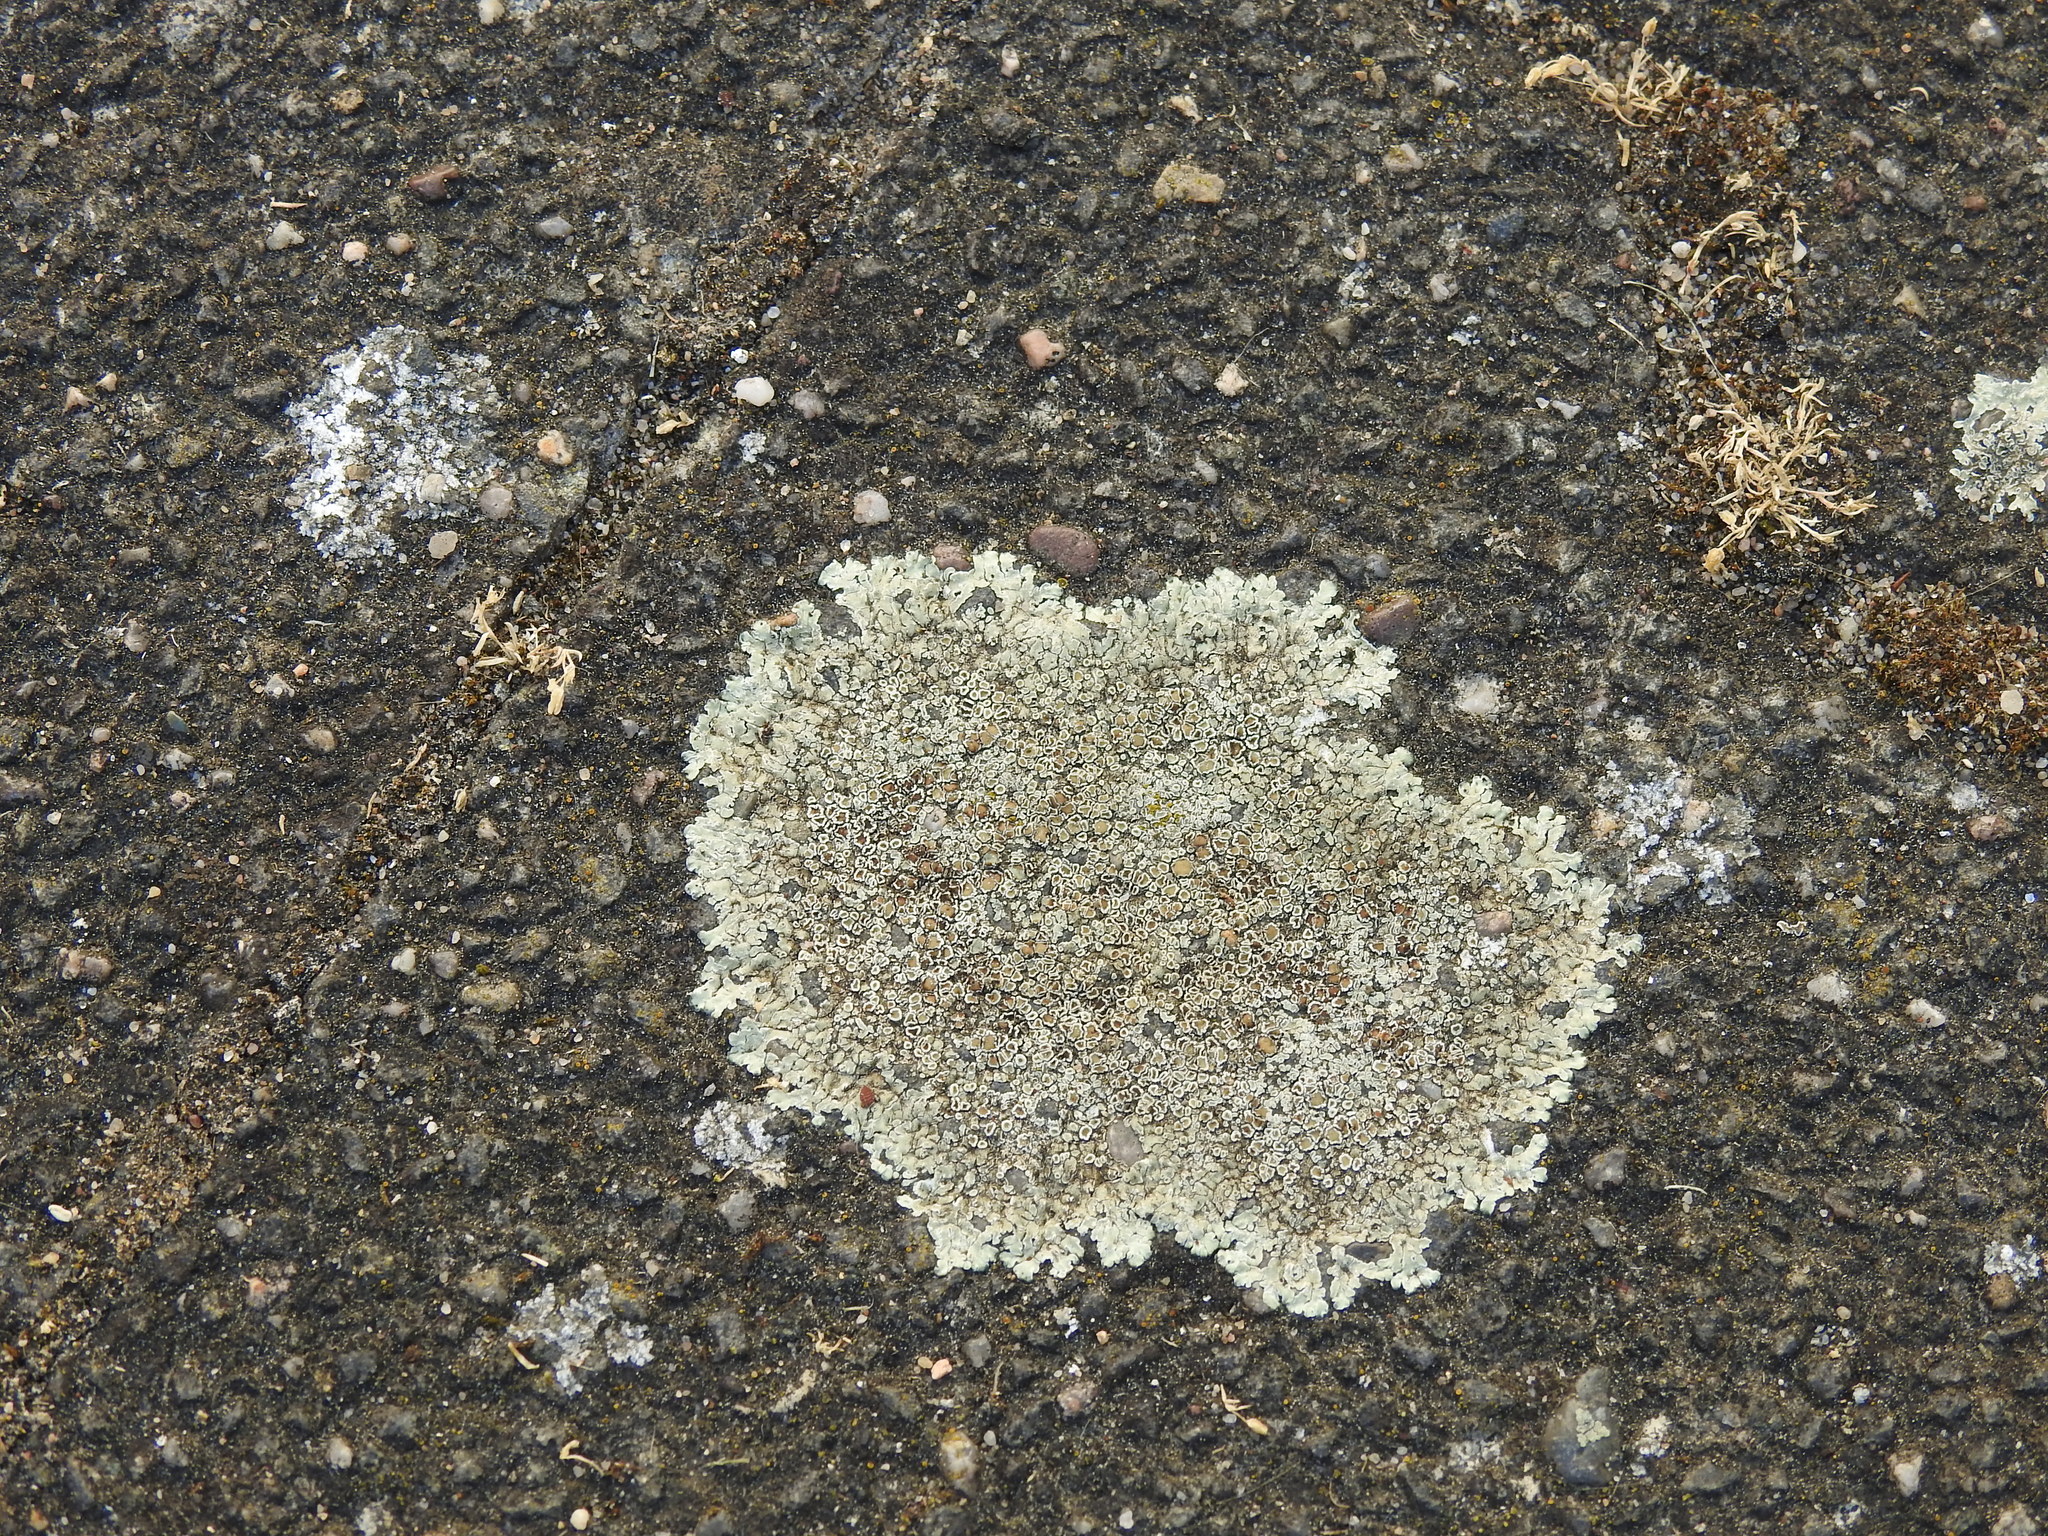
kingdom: Fungi
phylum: Ascomycota
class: Lecanoromycetes
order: Lecanorales
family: Lecanoraceae
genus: Protoparmeliopsis
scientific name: Protoparmeliopsis muralis
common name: Stonewall rim lichen
